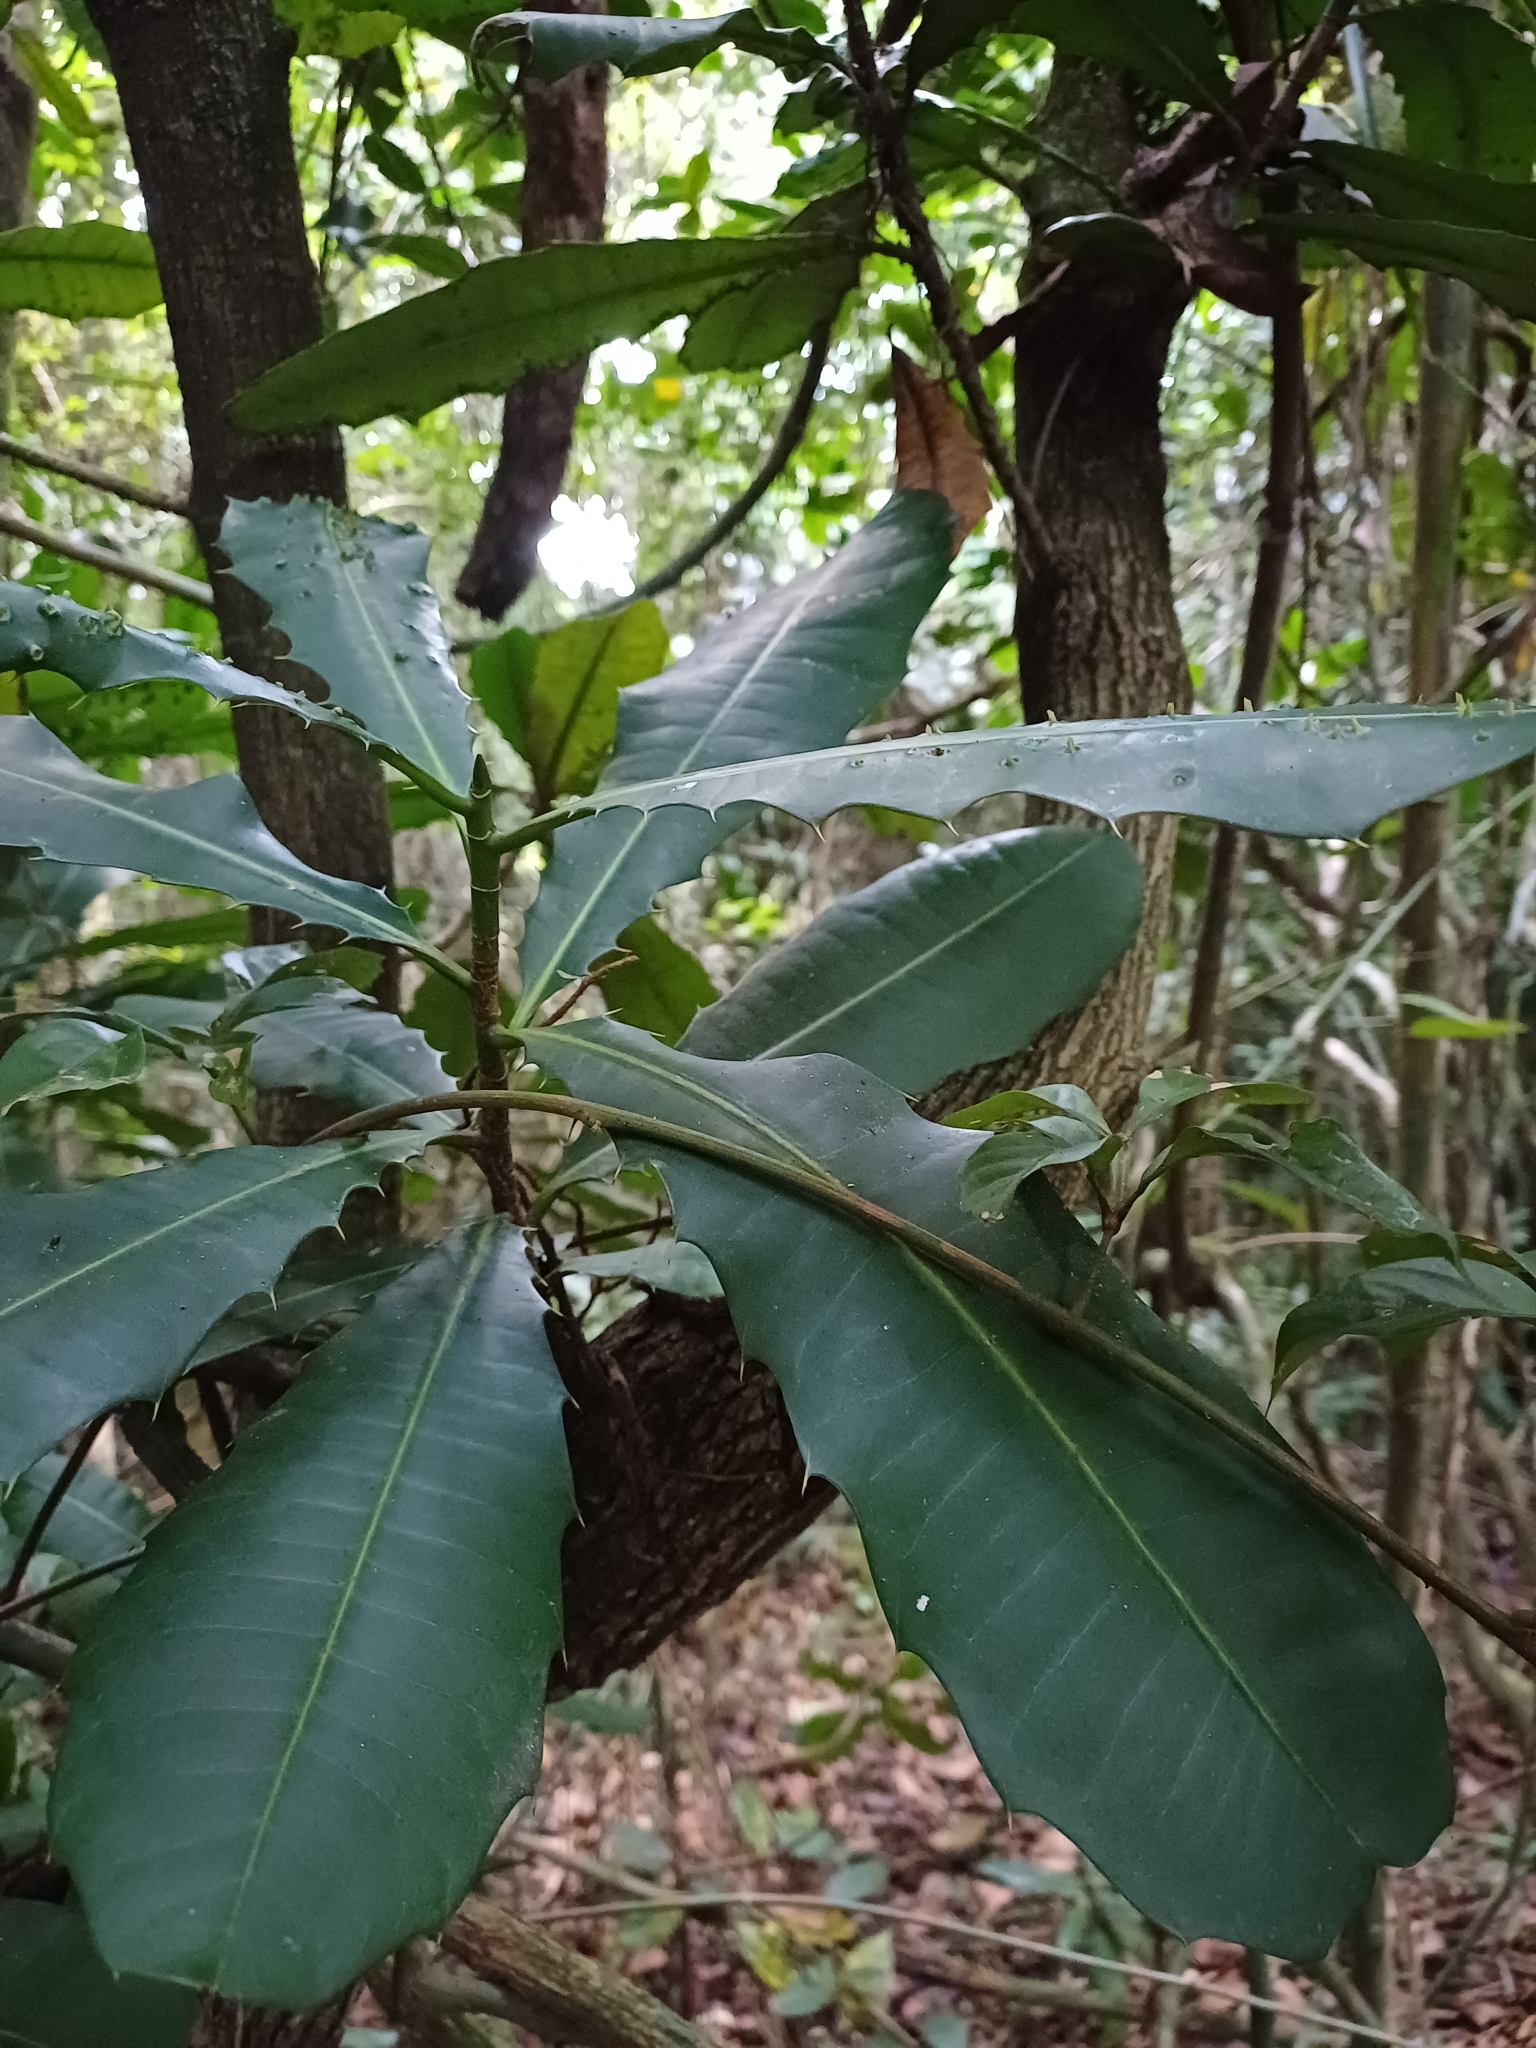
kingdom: Plantae
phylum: Tracheophyta
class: Magnoliopsida
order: Malpighiales
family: Euphorbiaceae
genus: Pachystroma
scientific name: Pachystroma longifolium
